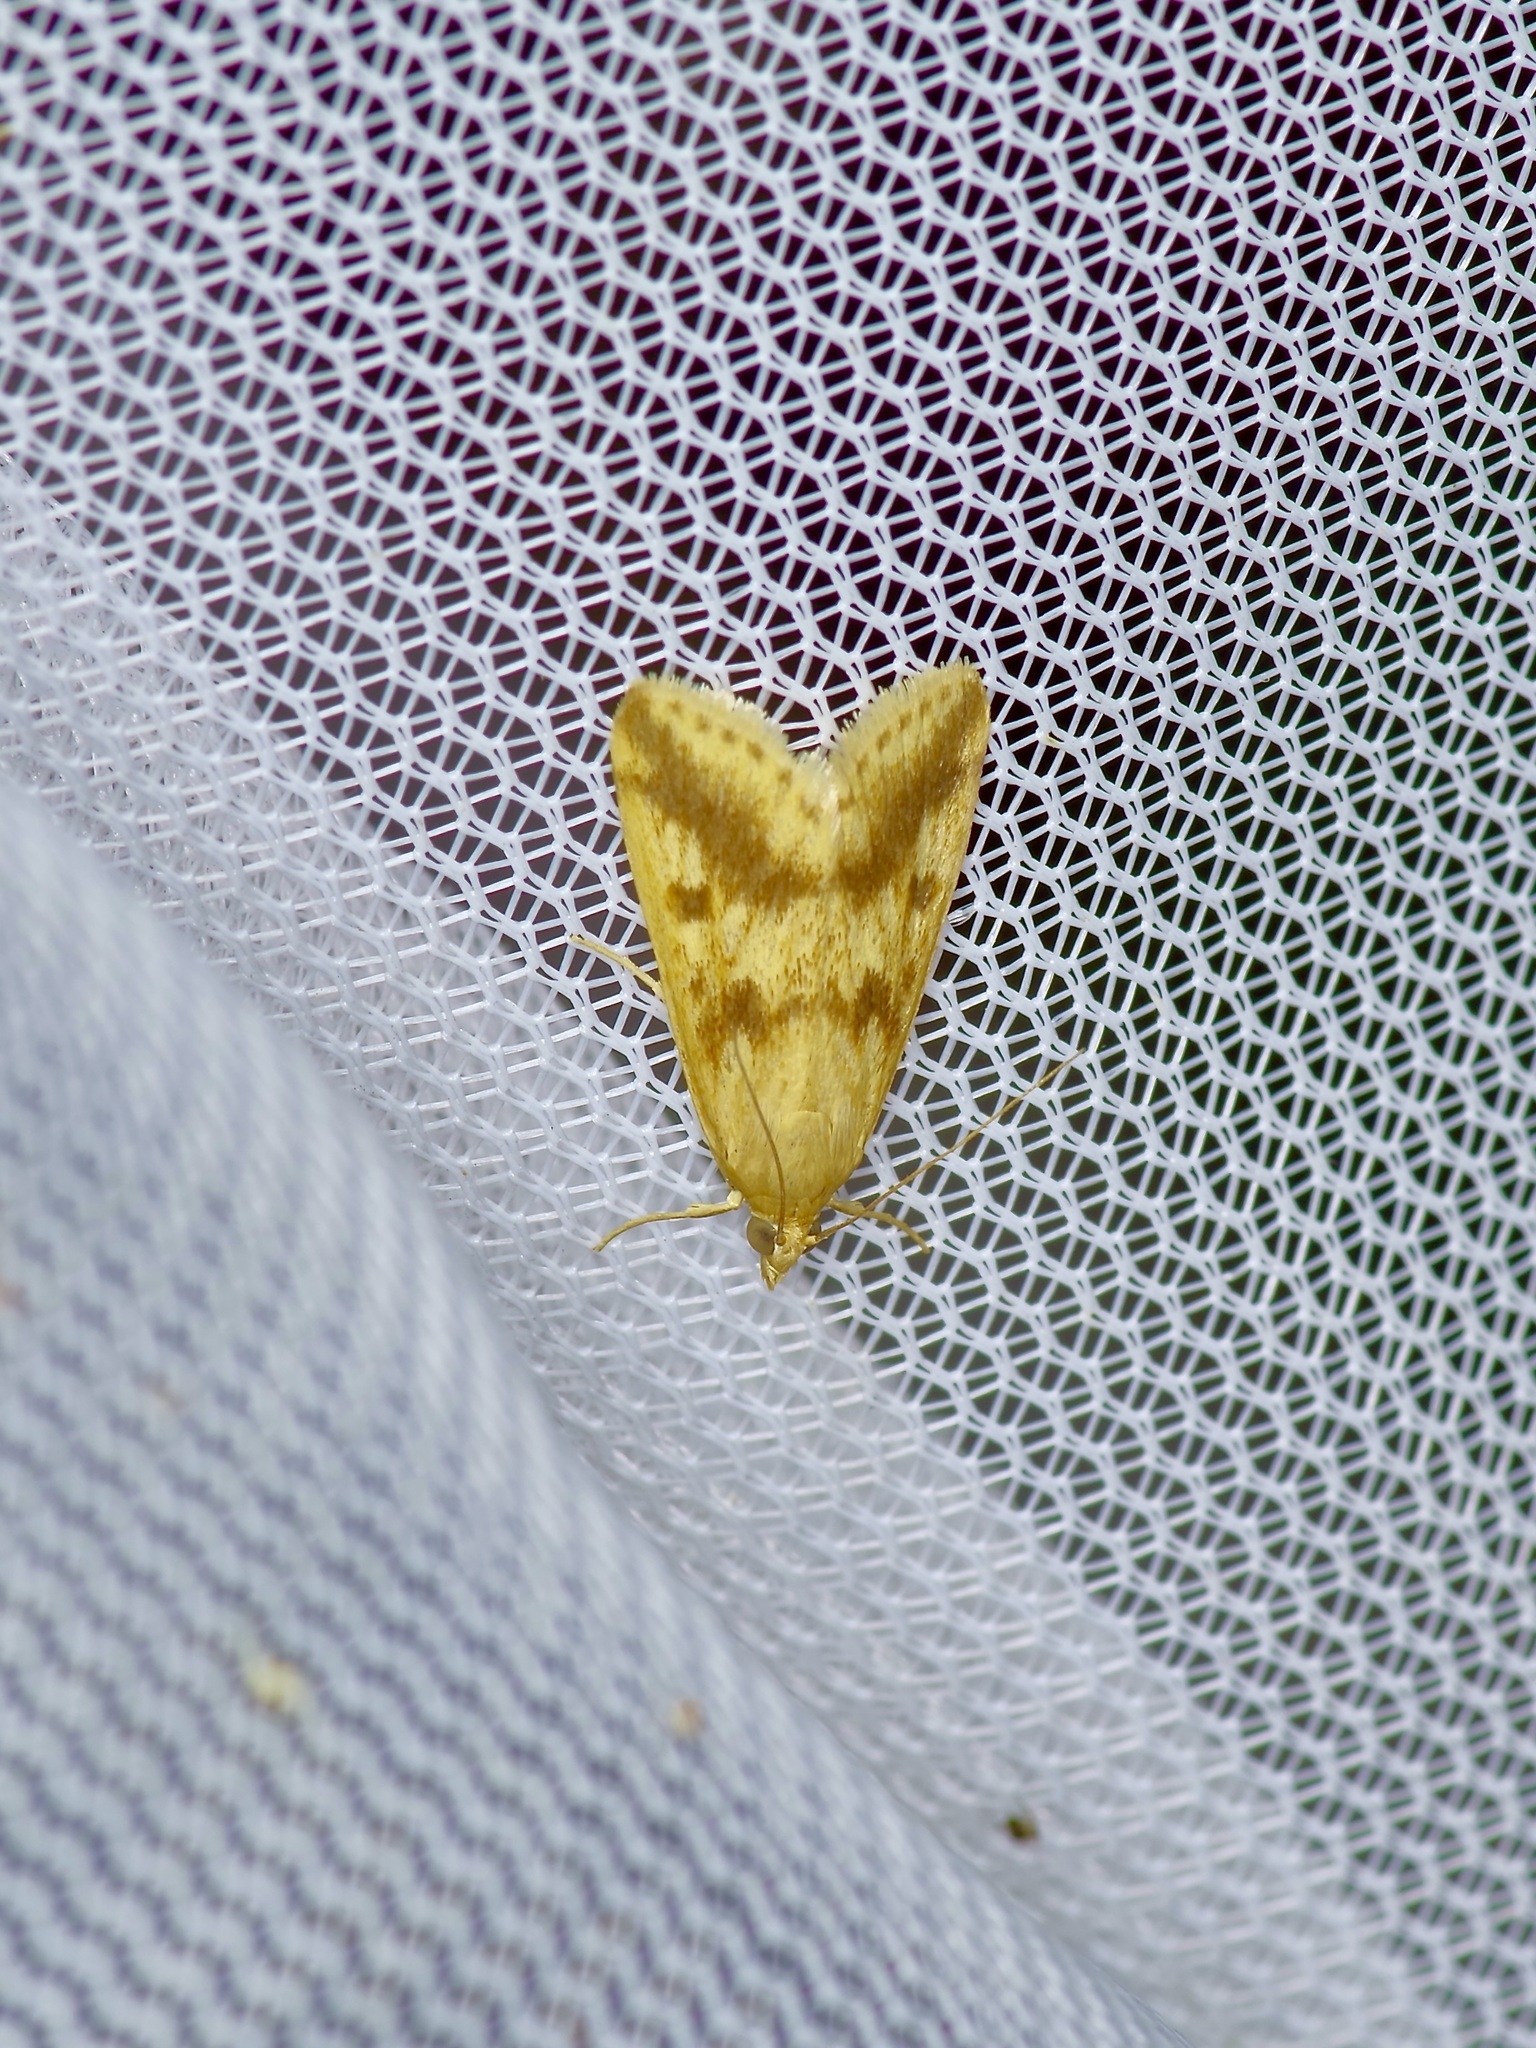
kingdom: Animalia
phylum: Arthropoda
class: Insecta
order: Lepidoptera
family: Crambidae
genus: Achyra
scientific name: Achyra bifidalis
